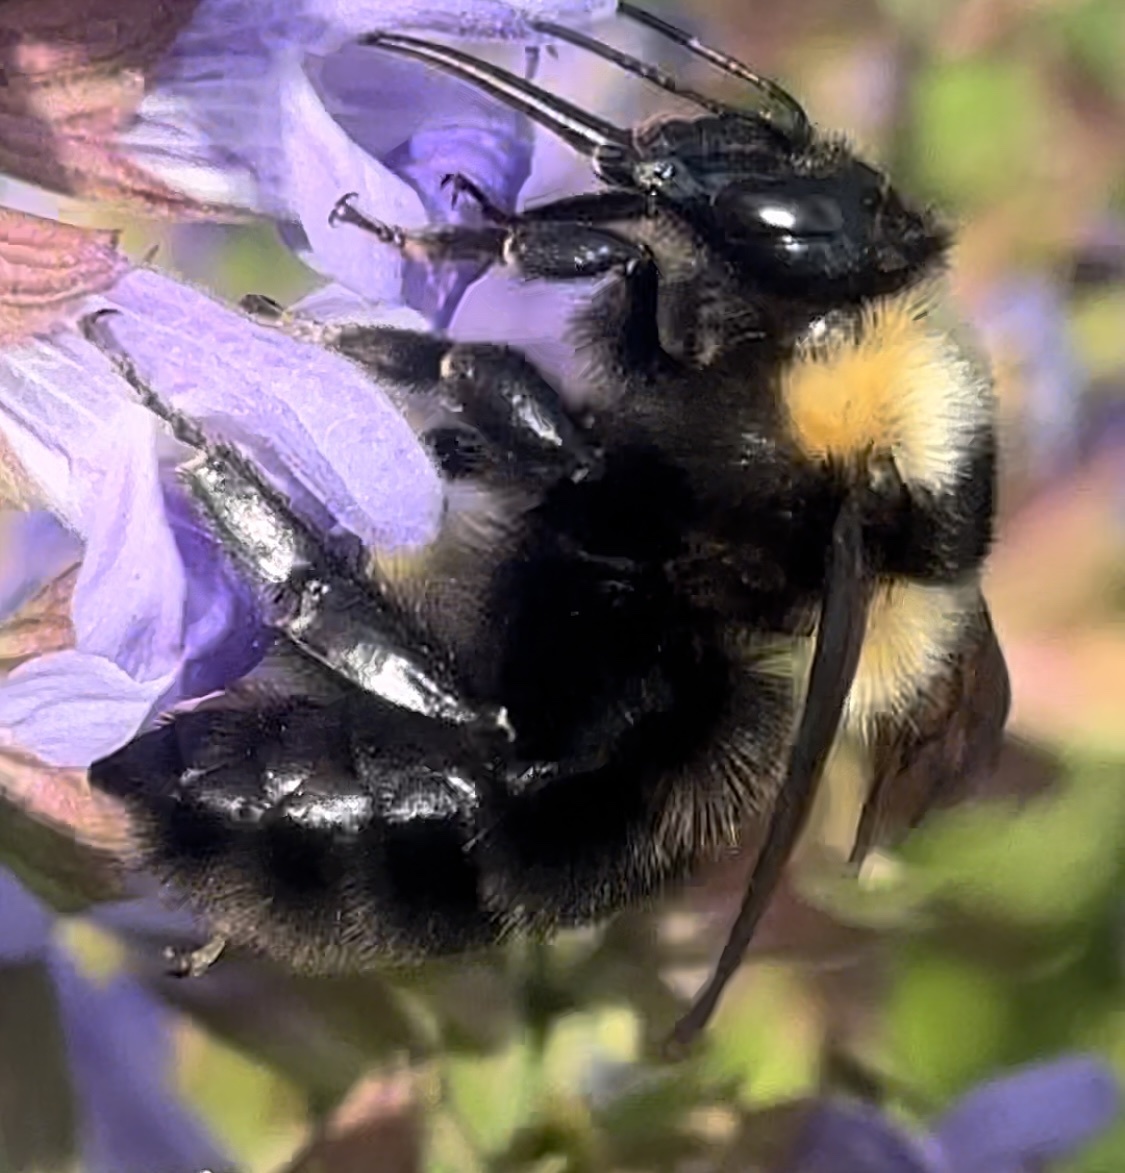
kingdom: Animalia
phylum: Arthropoda
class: Insecta
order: Hymenoptera
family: Apidae
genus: Bombus
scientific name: Bombus argillaceus
